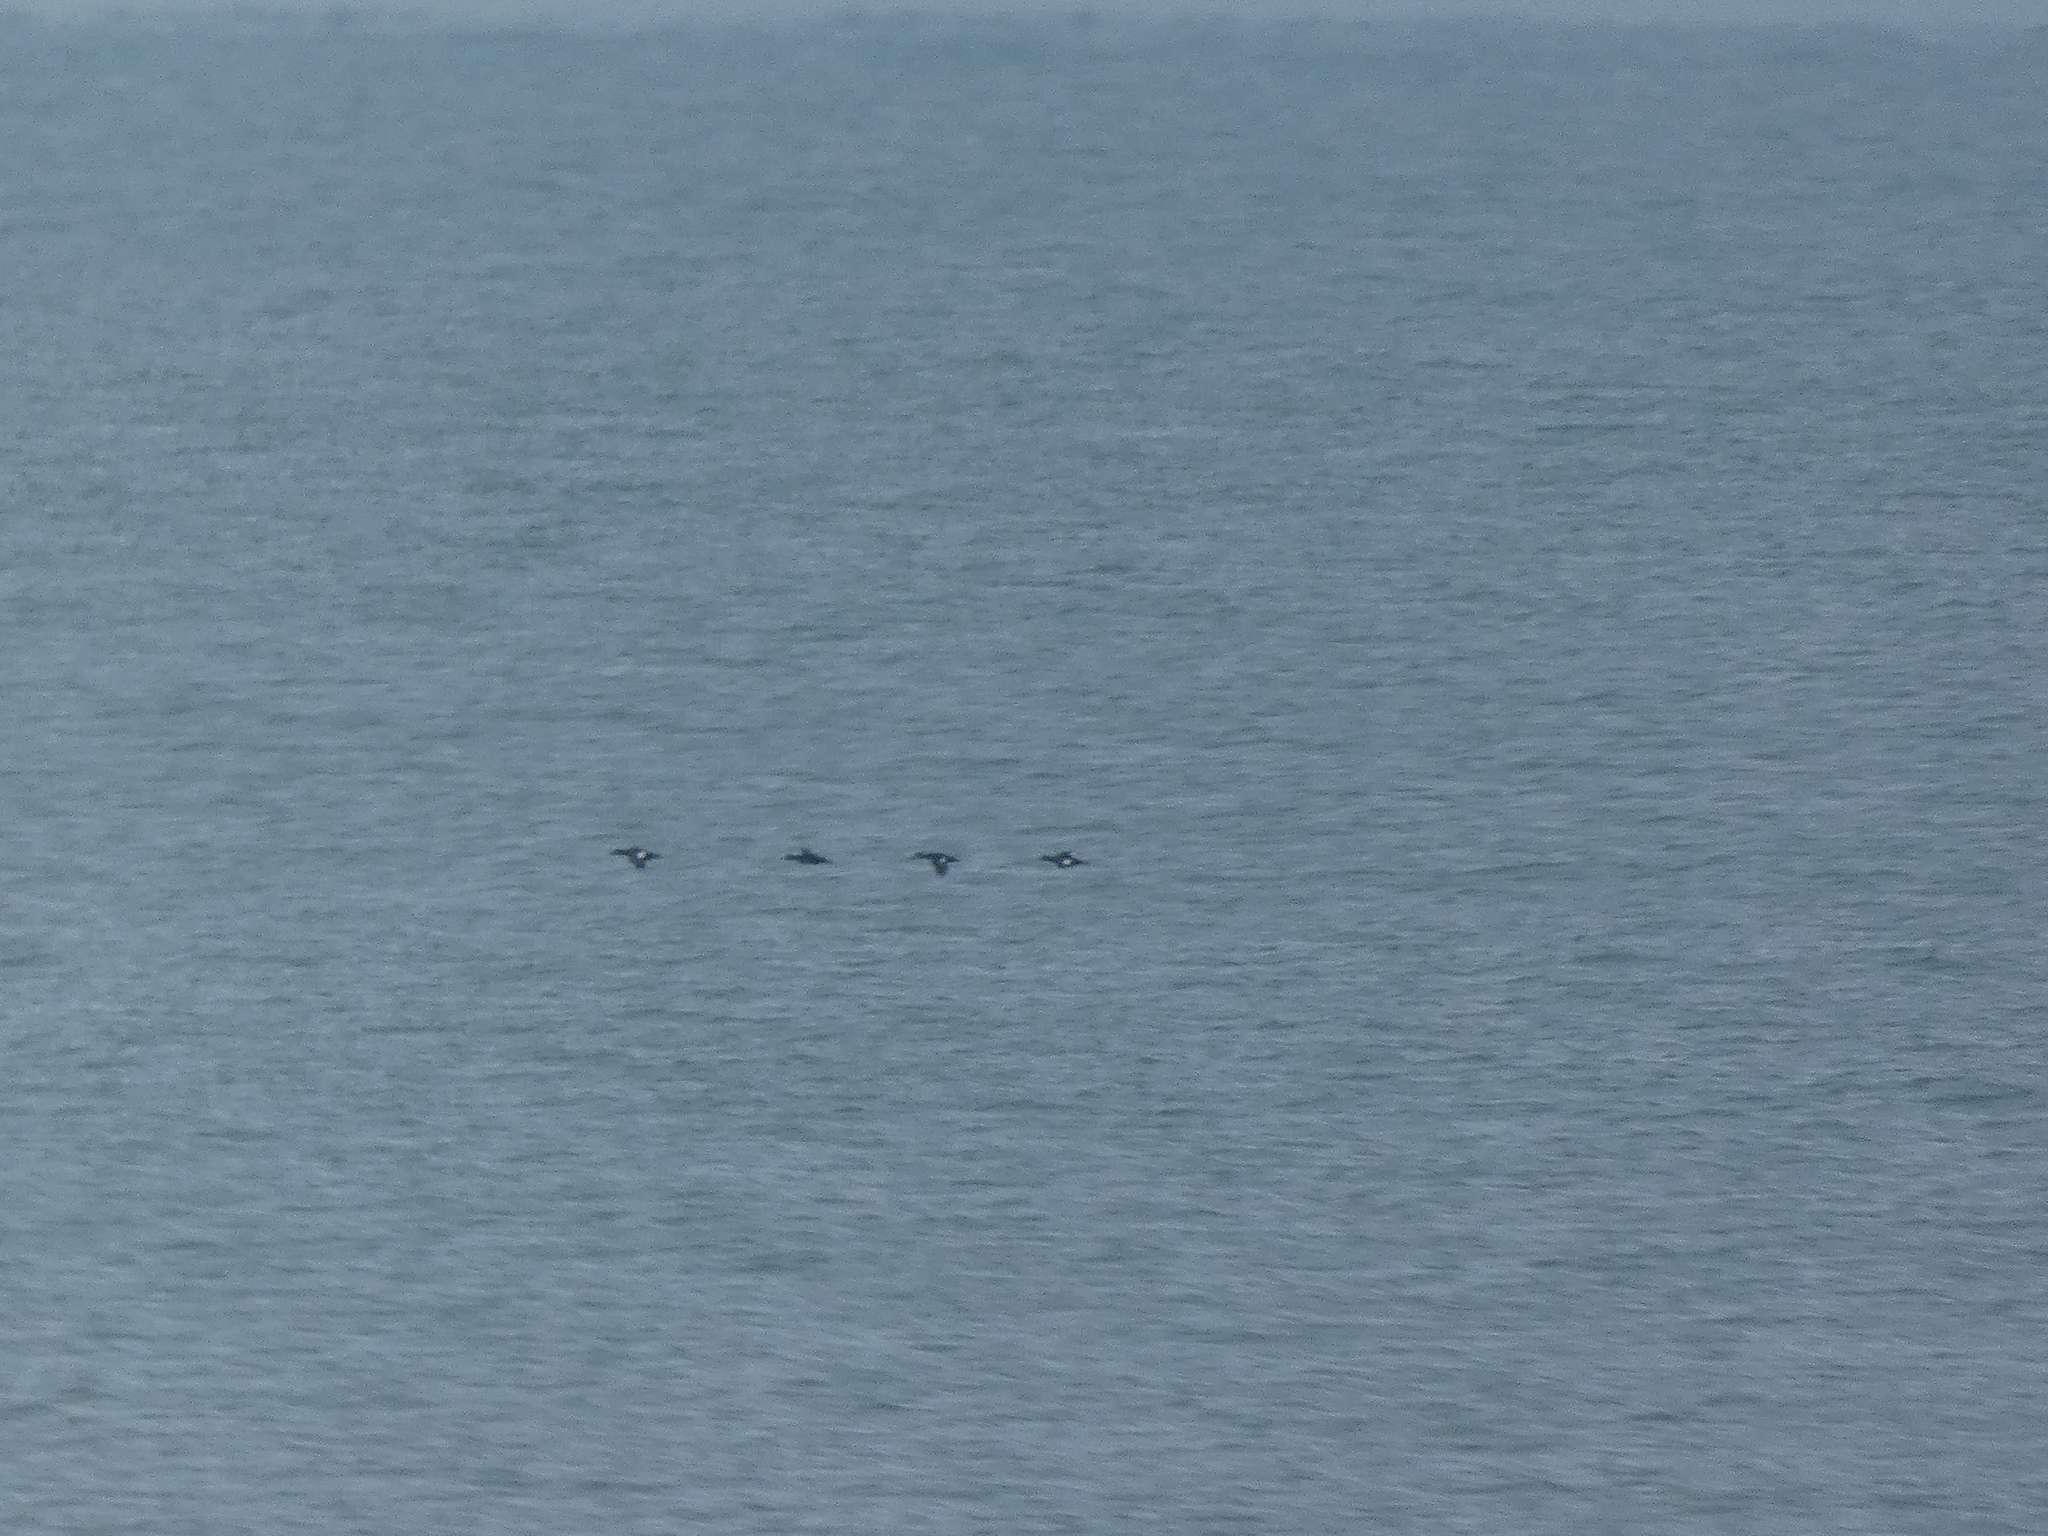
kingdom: Animalia
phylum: Chordata
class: Aves
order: Anseriformes
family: Anatidae
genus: Melanitta
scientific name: Melanitta fusca
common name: Velvet scoter
